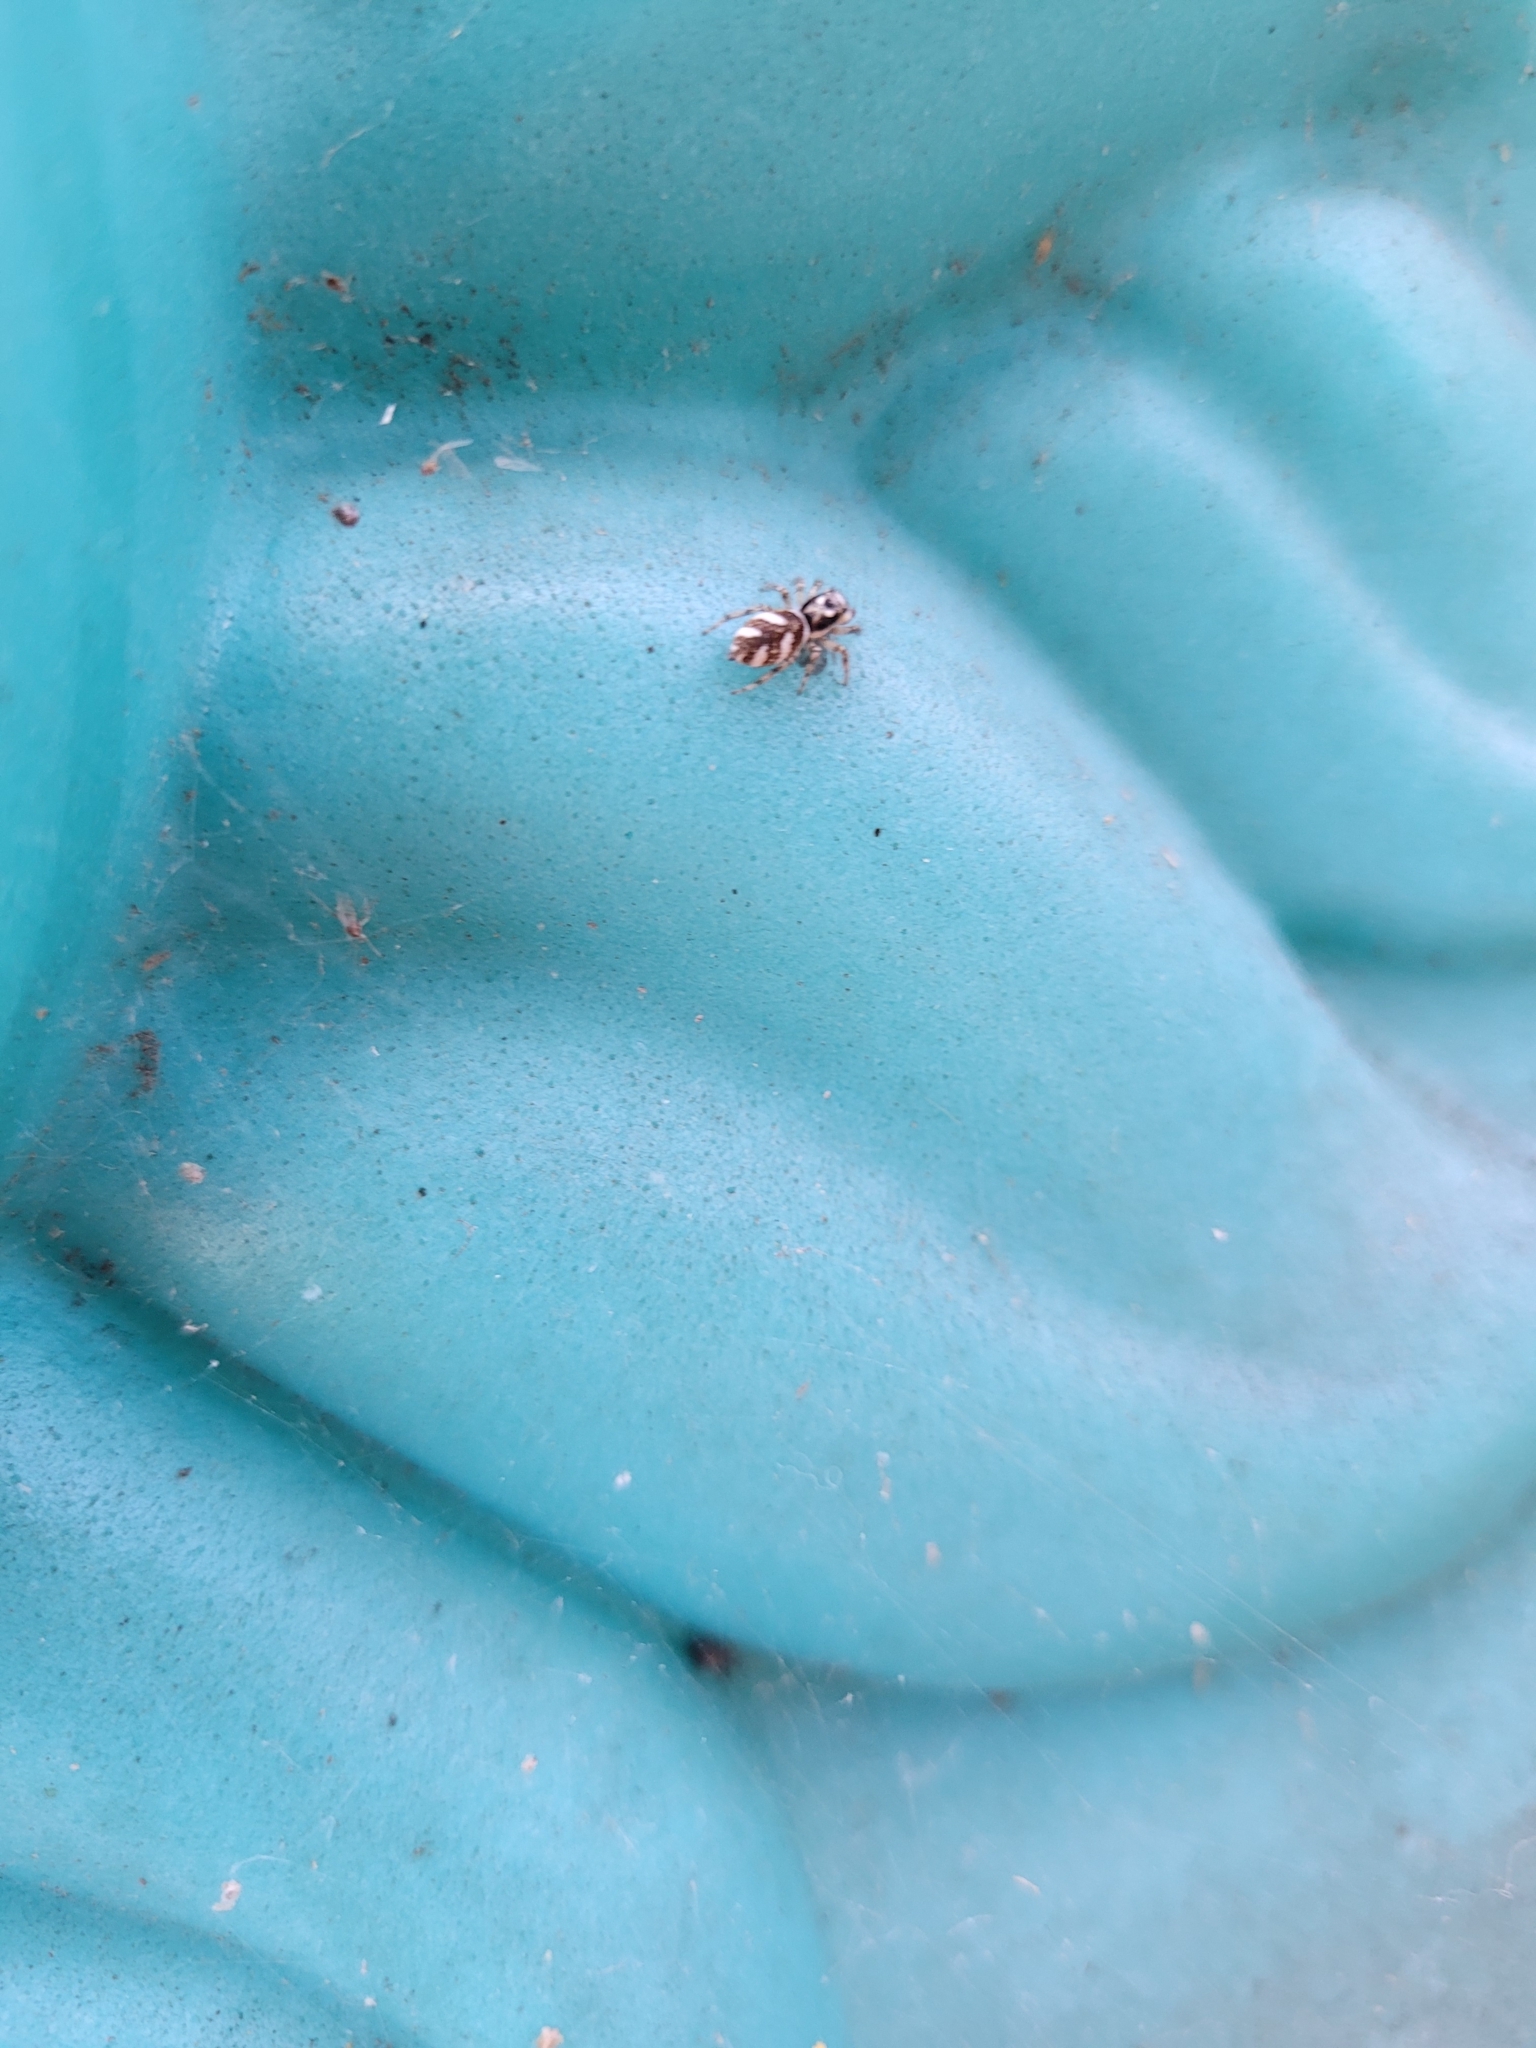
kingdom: Animalia
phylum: Arthropoda
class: Arachnida
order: Araneae
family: Salticidae
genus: Salticus
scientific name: Salticus scenicus
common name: Zebra jumper
